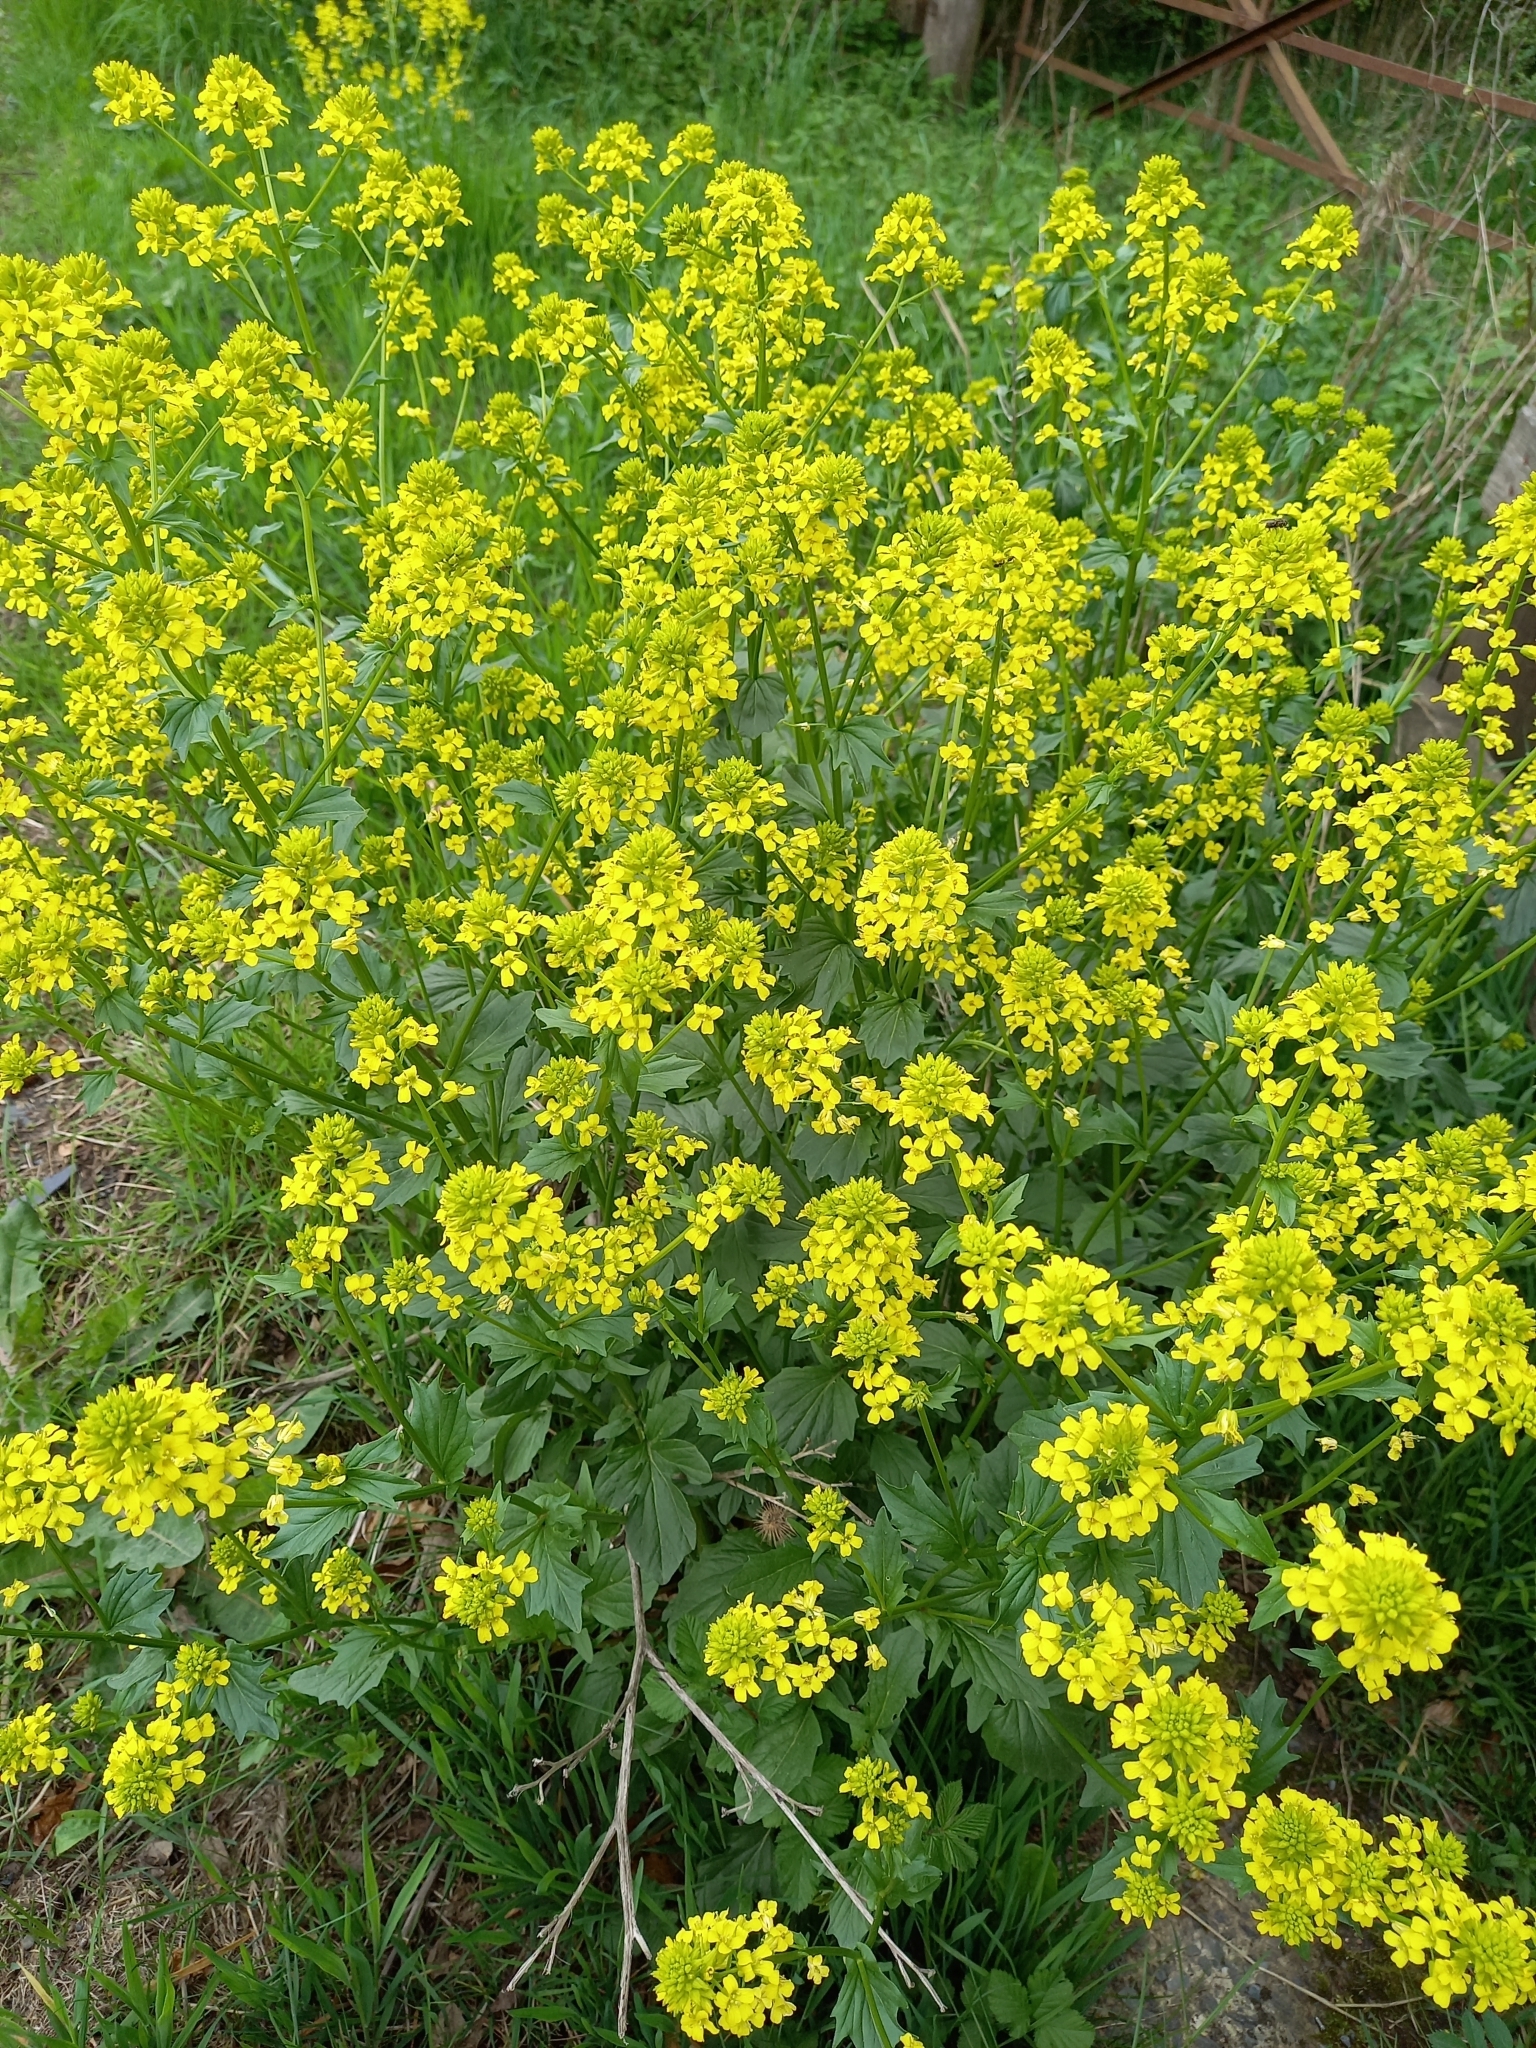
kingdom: Plantae
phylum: Tracheophyta
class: Magnoliopsida
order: Brassicales
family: Brassicaceae
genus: Barbarea
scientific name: Barbarea vulgaris
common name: Cressy-greens
